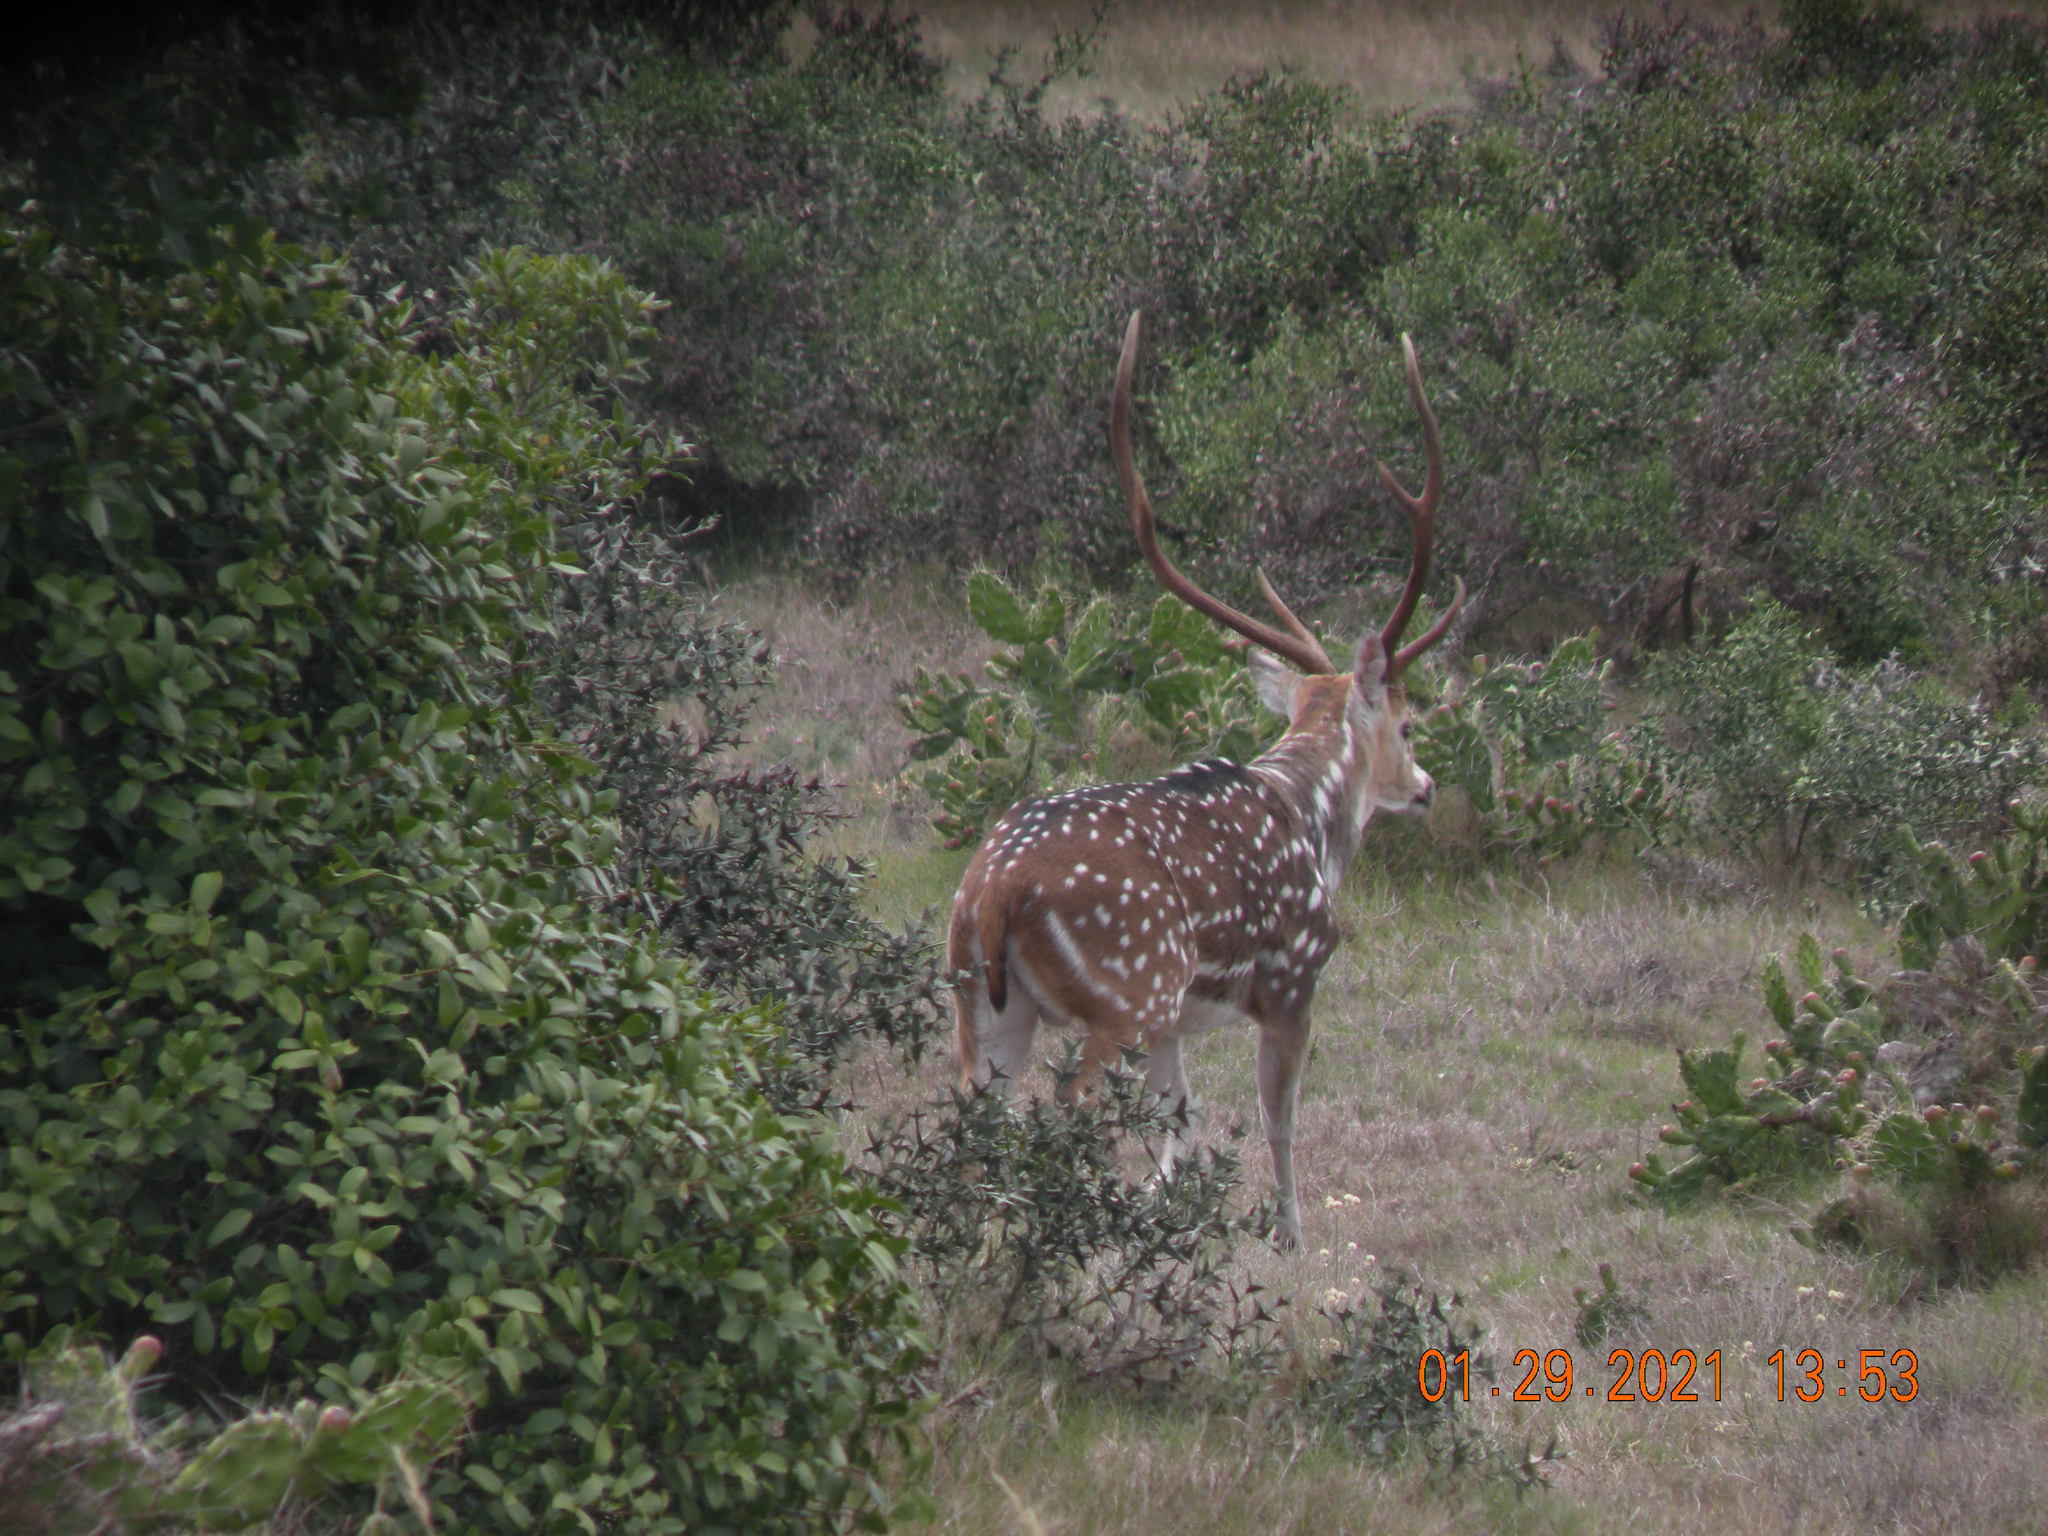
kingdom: Animalia
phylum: Chordata
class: Mammalia
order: Artiodactyla
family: Cervidae
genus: Axis
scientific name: Axis axis
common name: Chital
